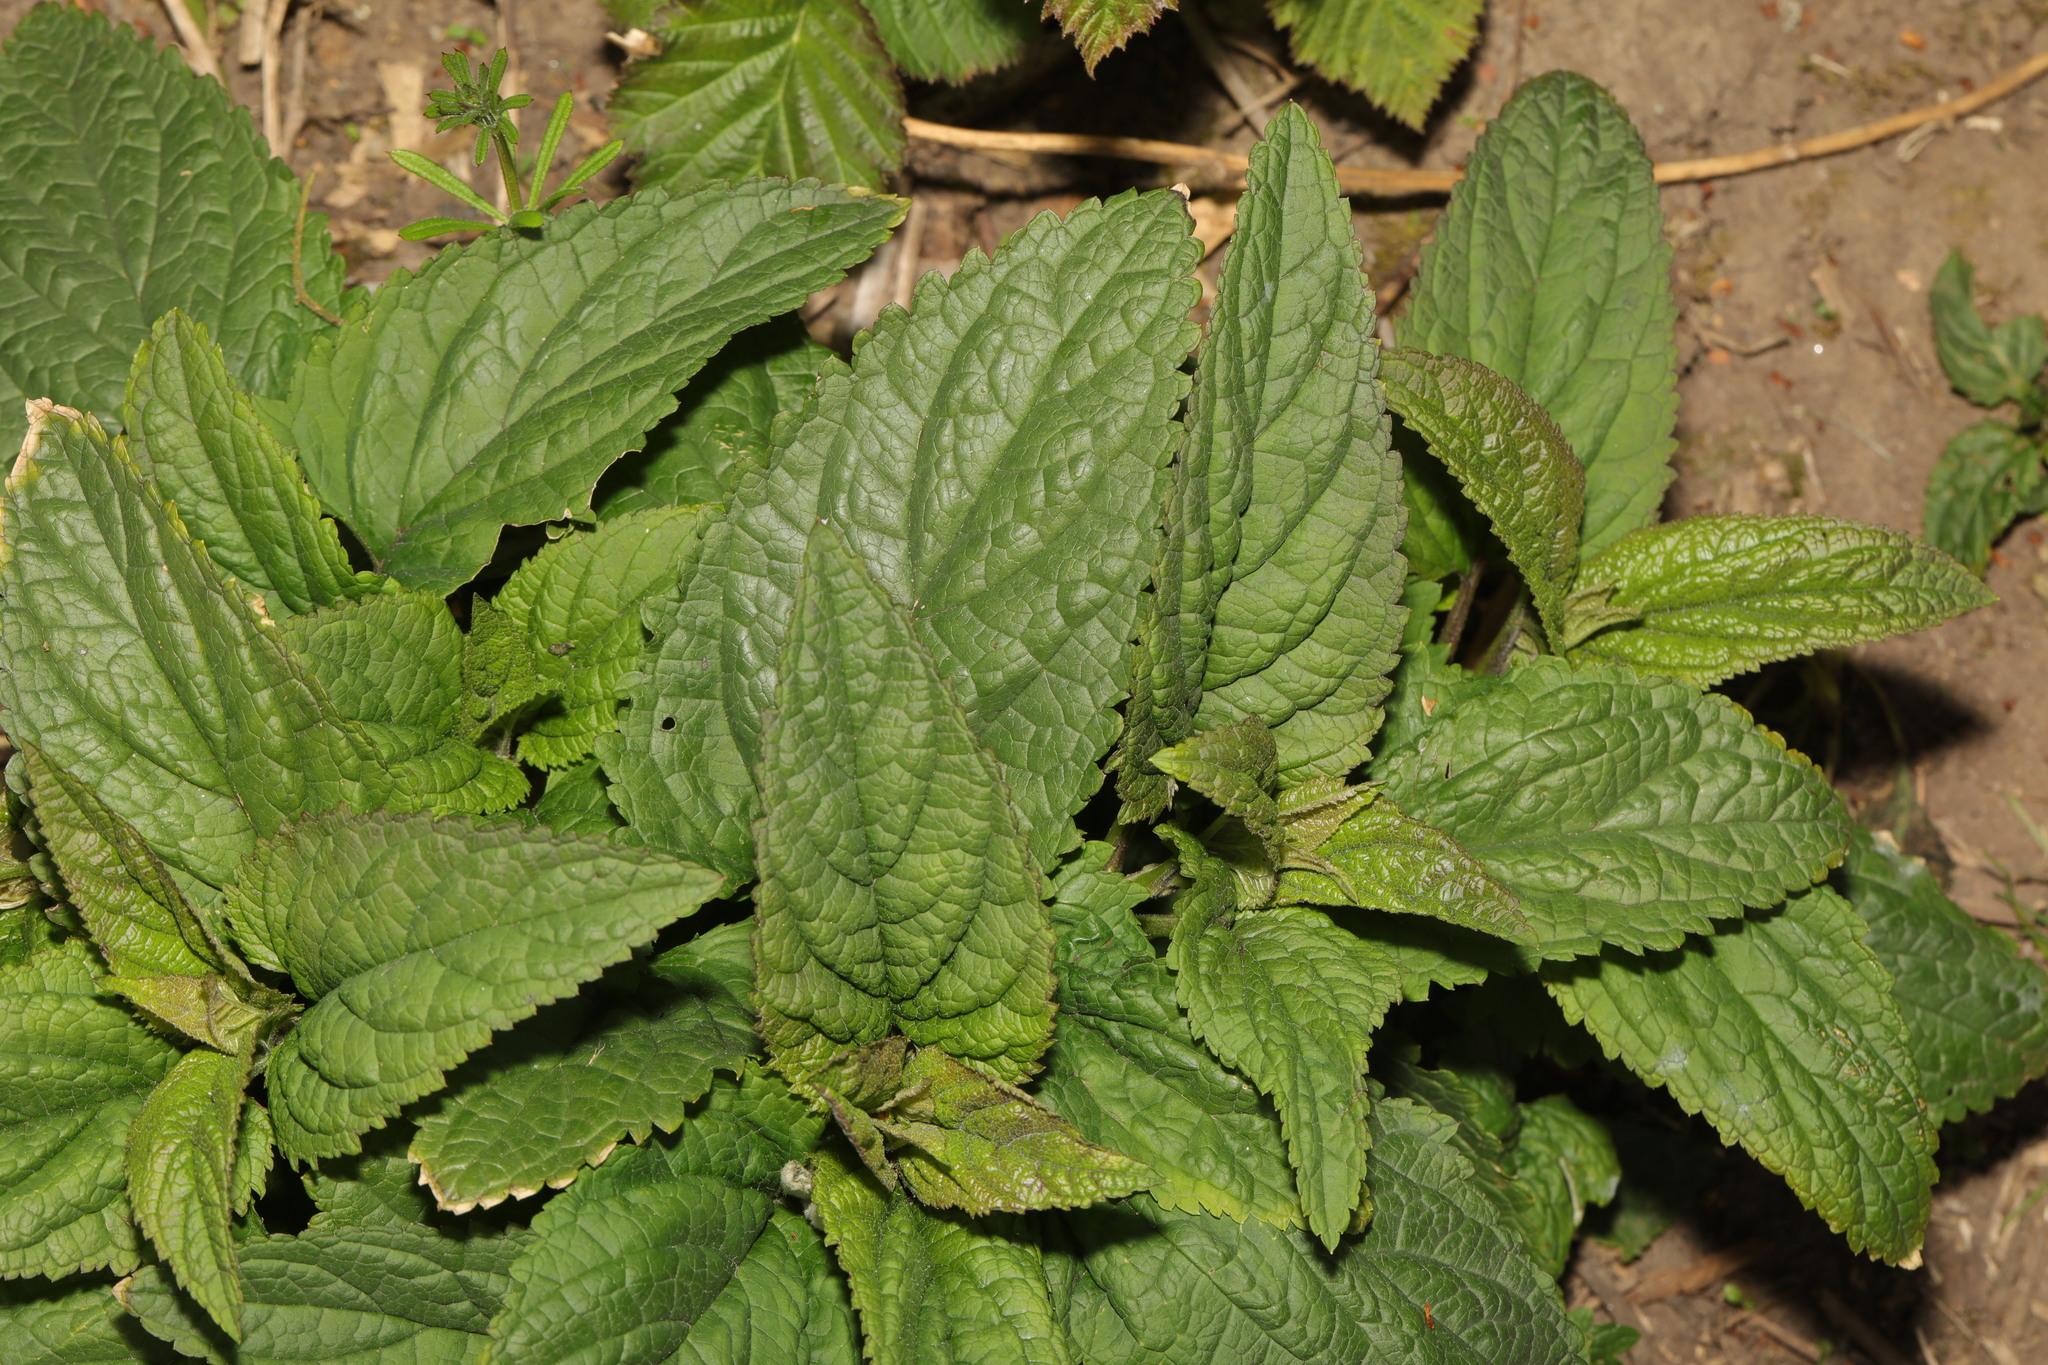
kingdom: Plantae
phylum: Tracheophyta
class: Magnoliopsida
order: Lamiales
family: Scrophulariaceae
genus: Scrophularia
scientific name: Scrophularia nodosa
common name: Common figwort
